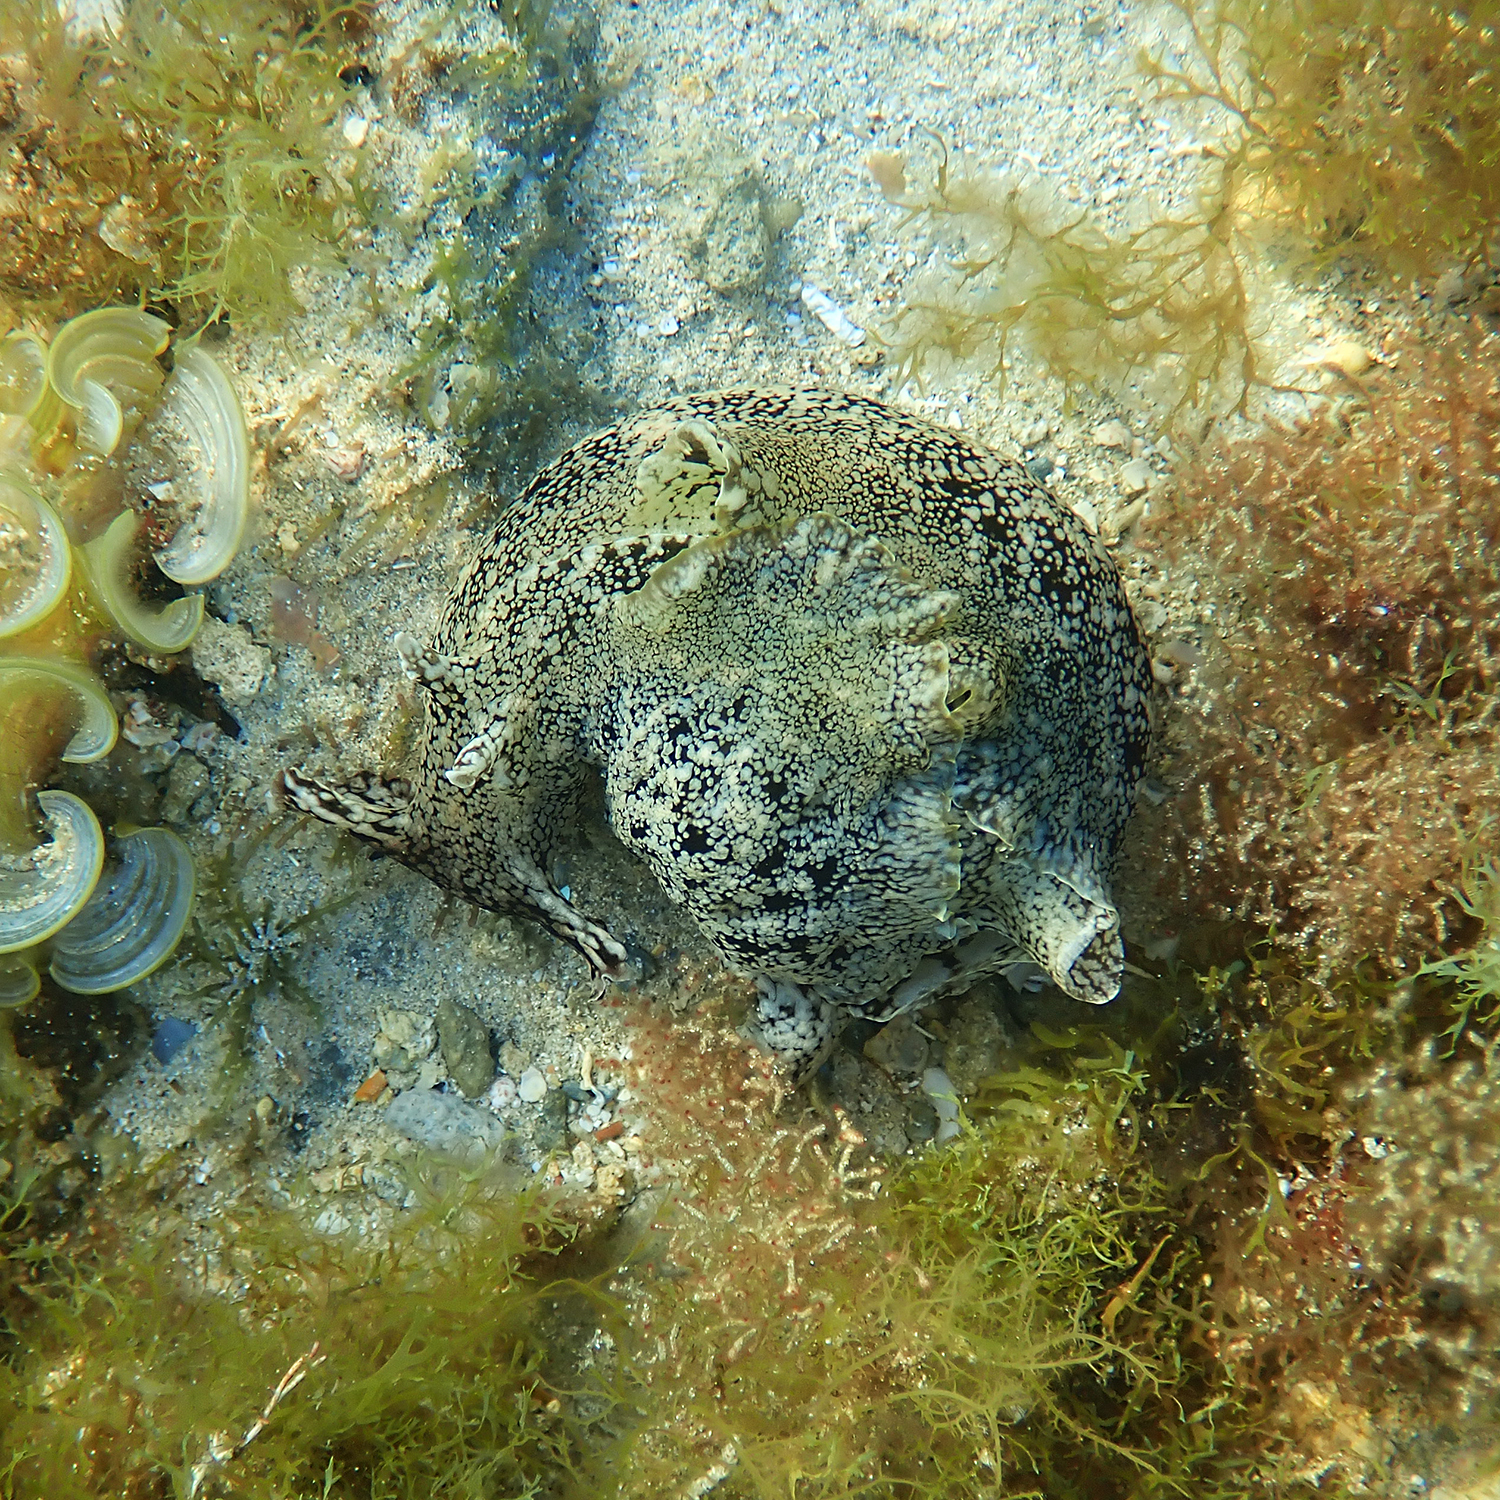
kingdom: Animalia
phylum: Mollusca
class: Gastropoda
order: Aplysiida
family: Aplysiidae
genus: Aplysia
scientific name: Aplysia reticulata
